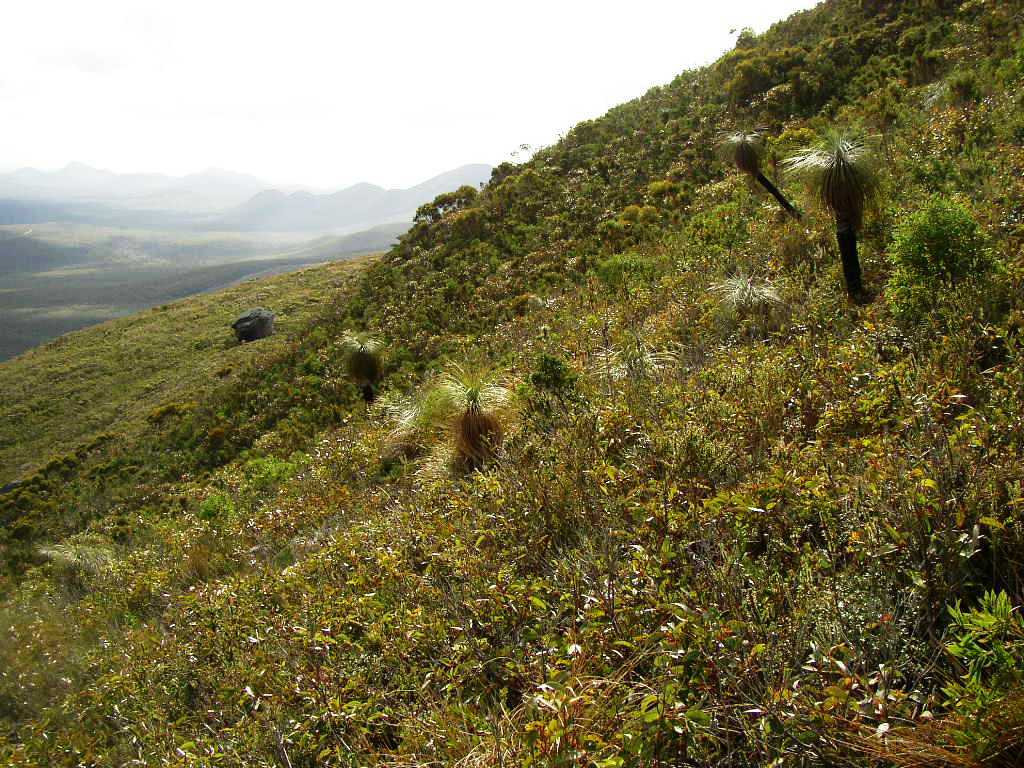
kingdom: Plantae
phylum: Tracheophyta
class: Liliopsida
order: Arecales
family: Dasypogonaceae
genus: Kingia
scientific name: Kingia australis
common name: Black gin
